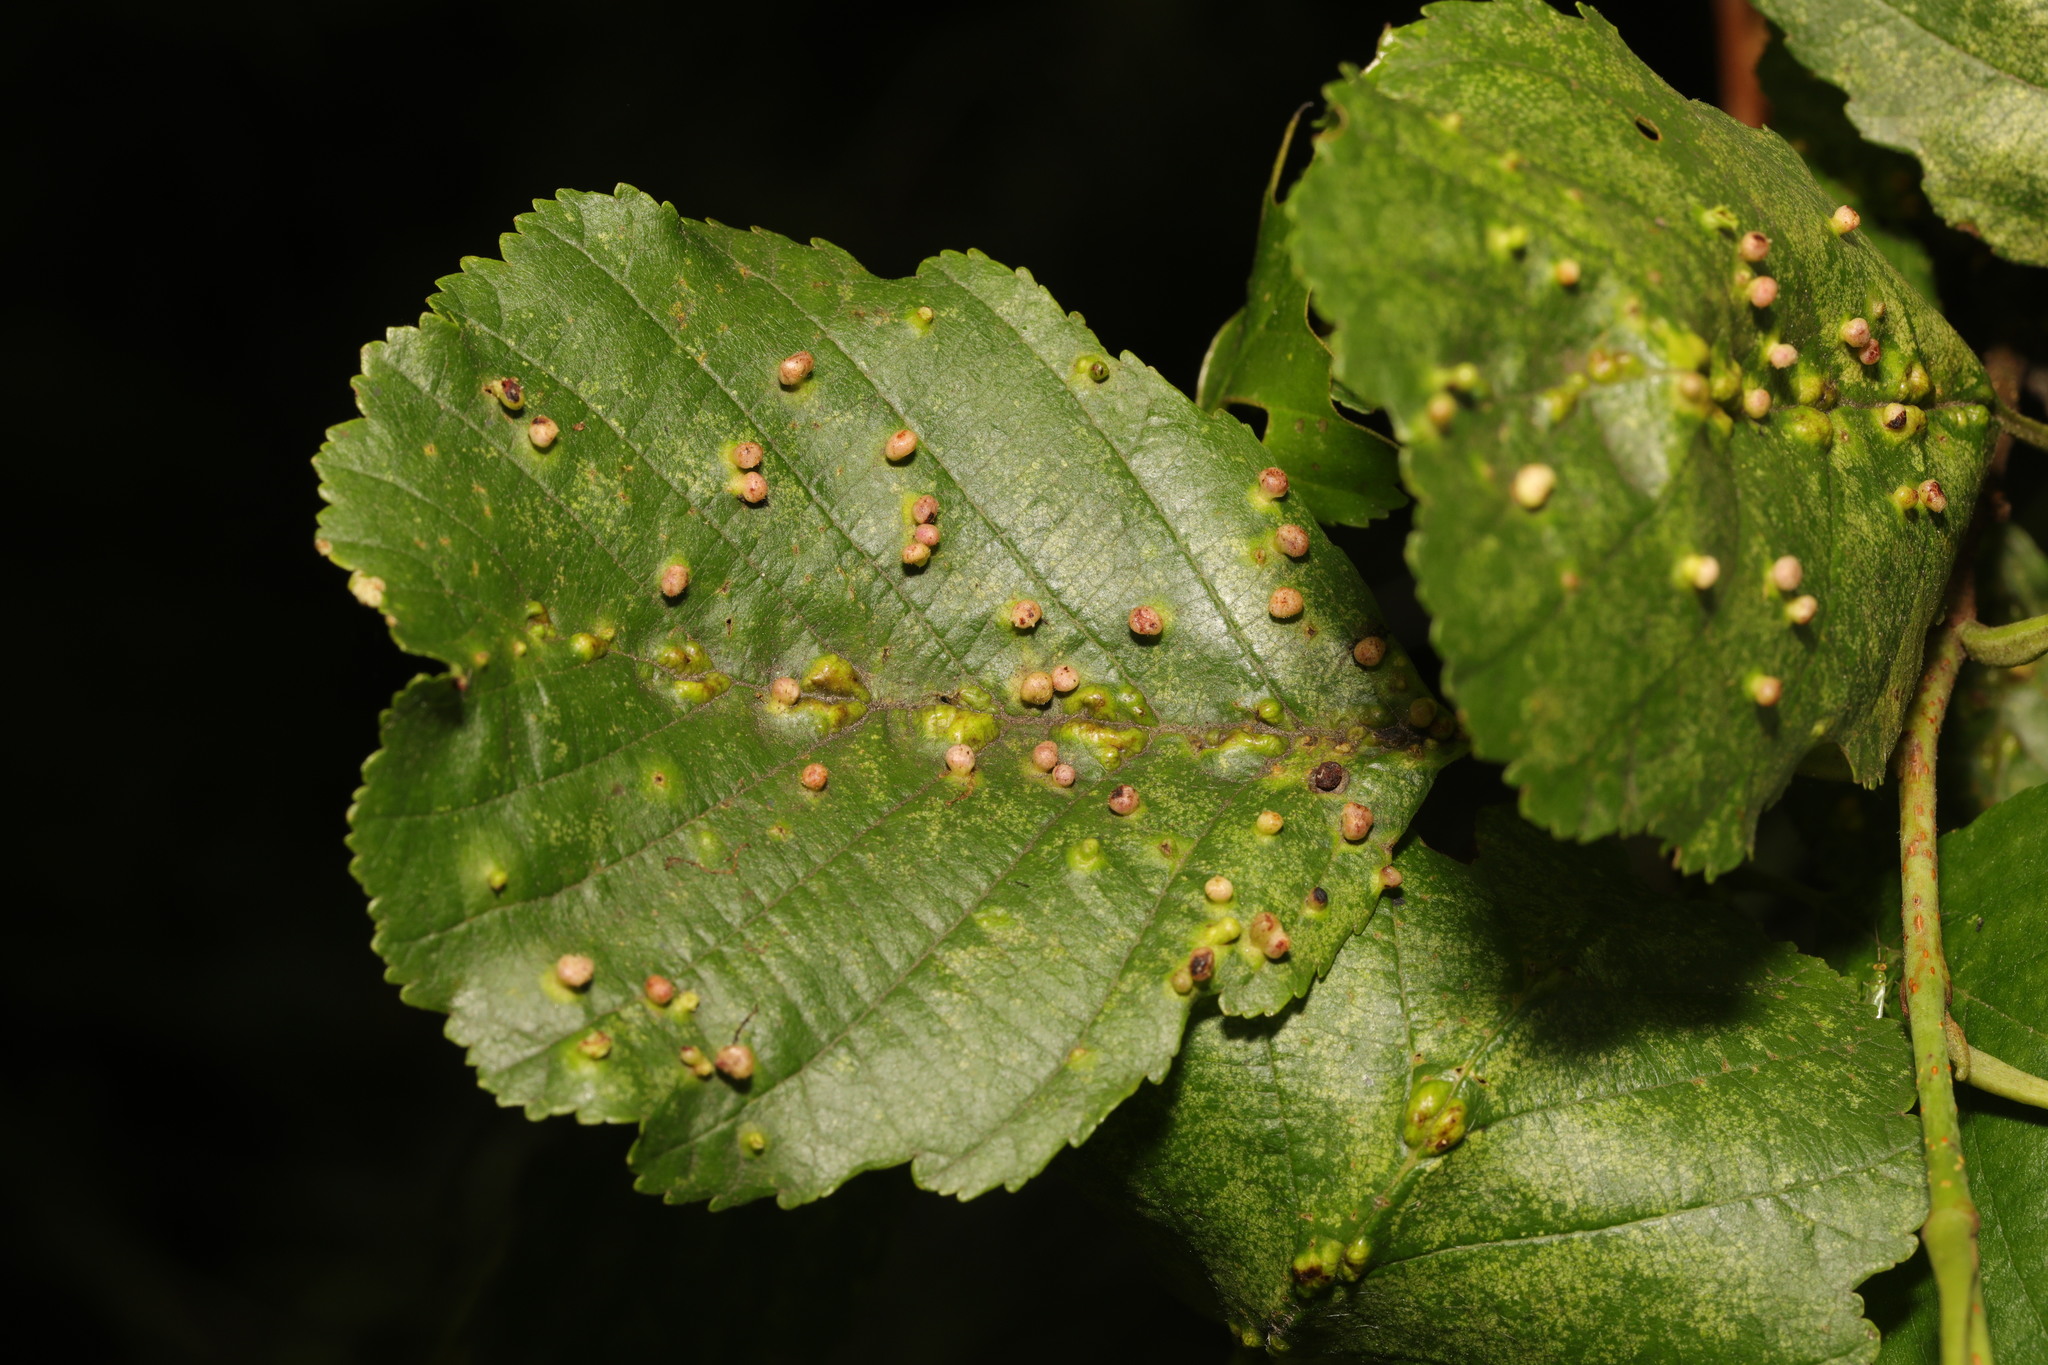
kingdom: Animalia
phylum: Arthropoda
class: Arachnida
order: Trombidiformes
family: Eriophyidae
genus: Eriophyes
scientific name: Eriophyes laevis
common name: Alder leaf gall mite
